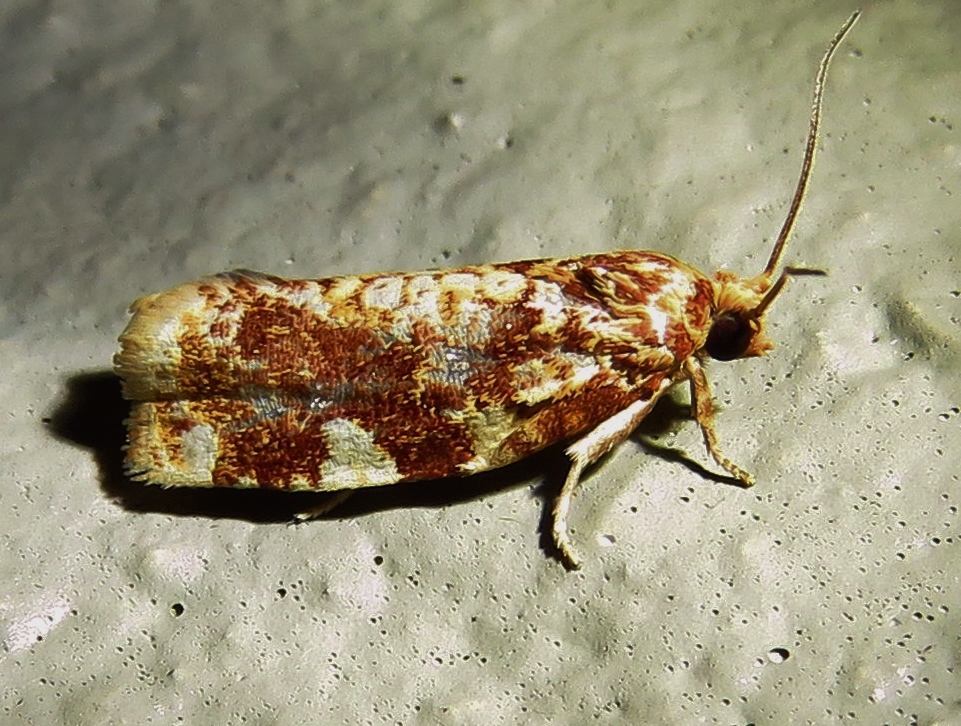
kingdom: Animalia
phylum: Arthropoda
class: Insecta
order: Lepidoptera
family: Tortricidae
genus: Archips
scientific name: Archips argyrospila
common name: Fruit-tree leafroller moth
